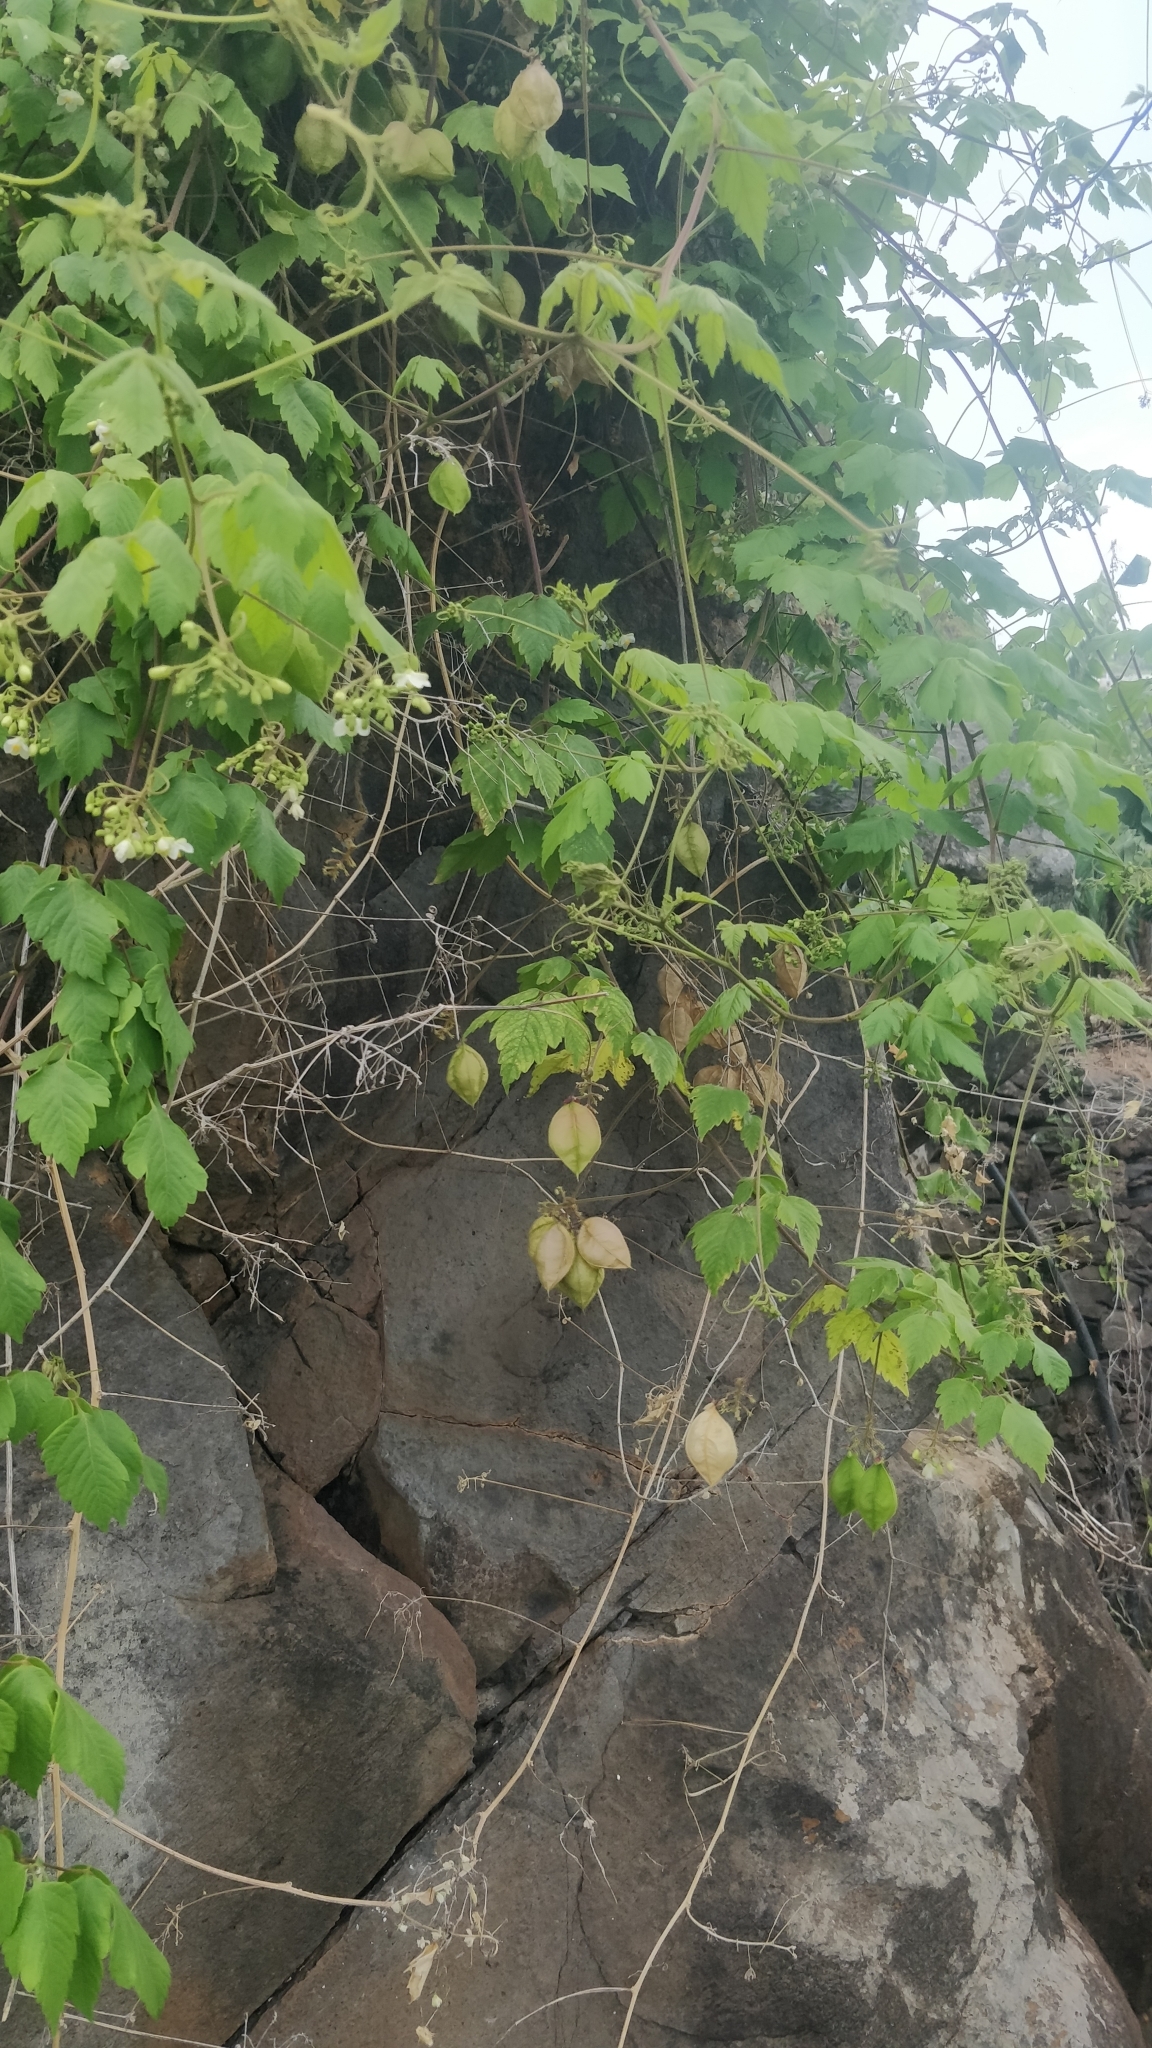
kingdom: Plantae
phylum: Tracheophyta
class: Magnoliopsida
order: Sapindales
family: Sapindaceae
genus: Cardiospermum
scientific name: Cardiospermum grandiflorum
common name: Balloon vine
